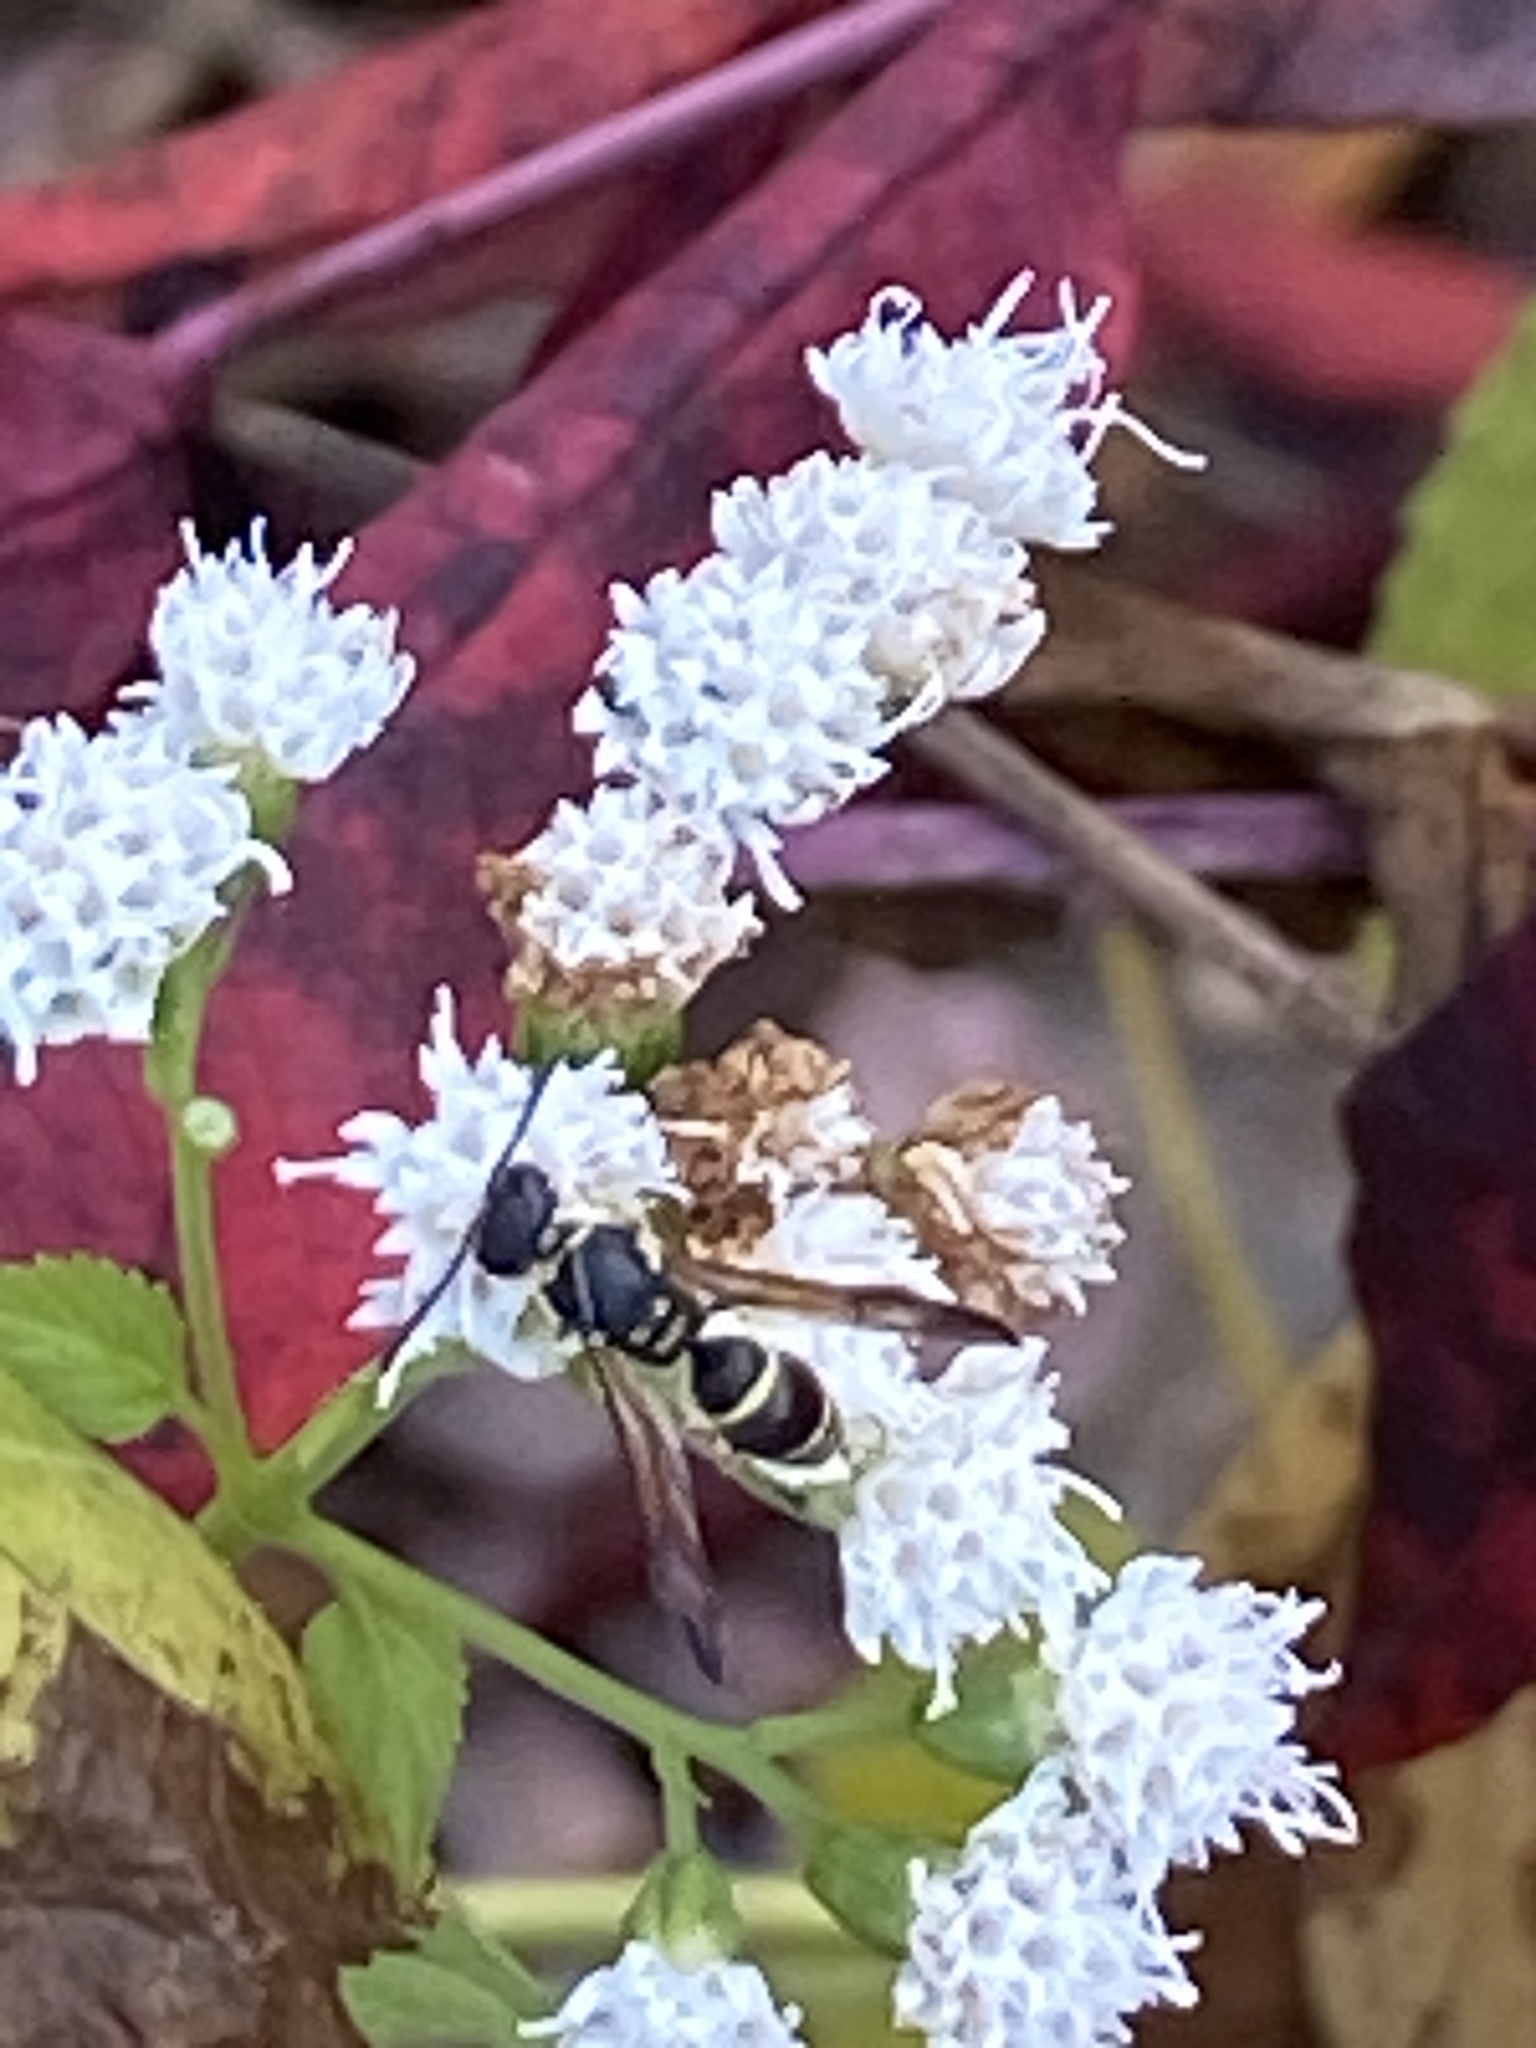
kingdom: Animalia
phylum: Arthropoda
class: Insecta
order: Hymenoptera
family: Vespidae
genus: Ancistrocerus
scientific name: Ancistrocerus adiabatus
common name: Bramble mason wasp
